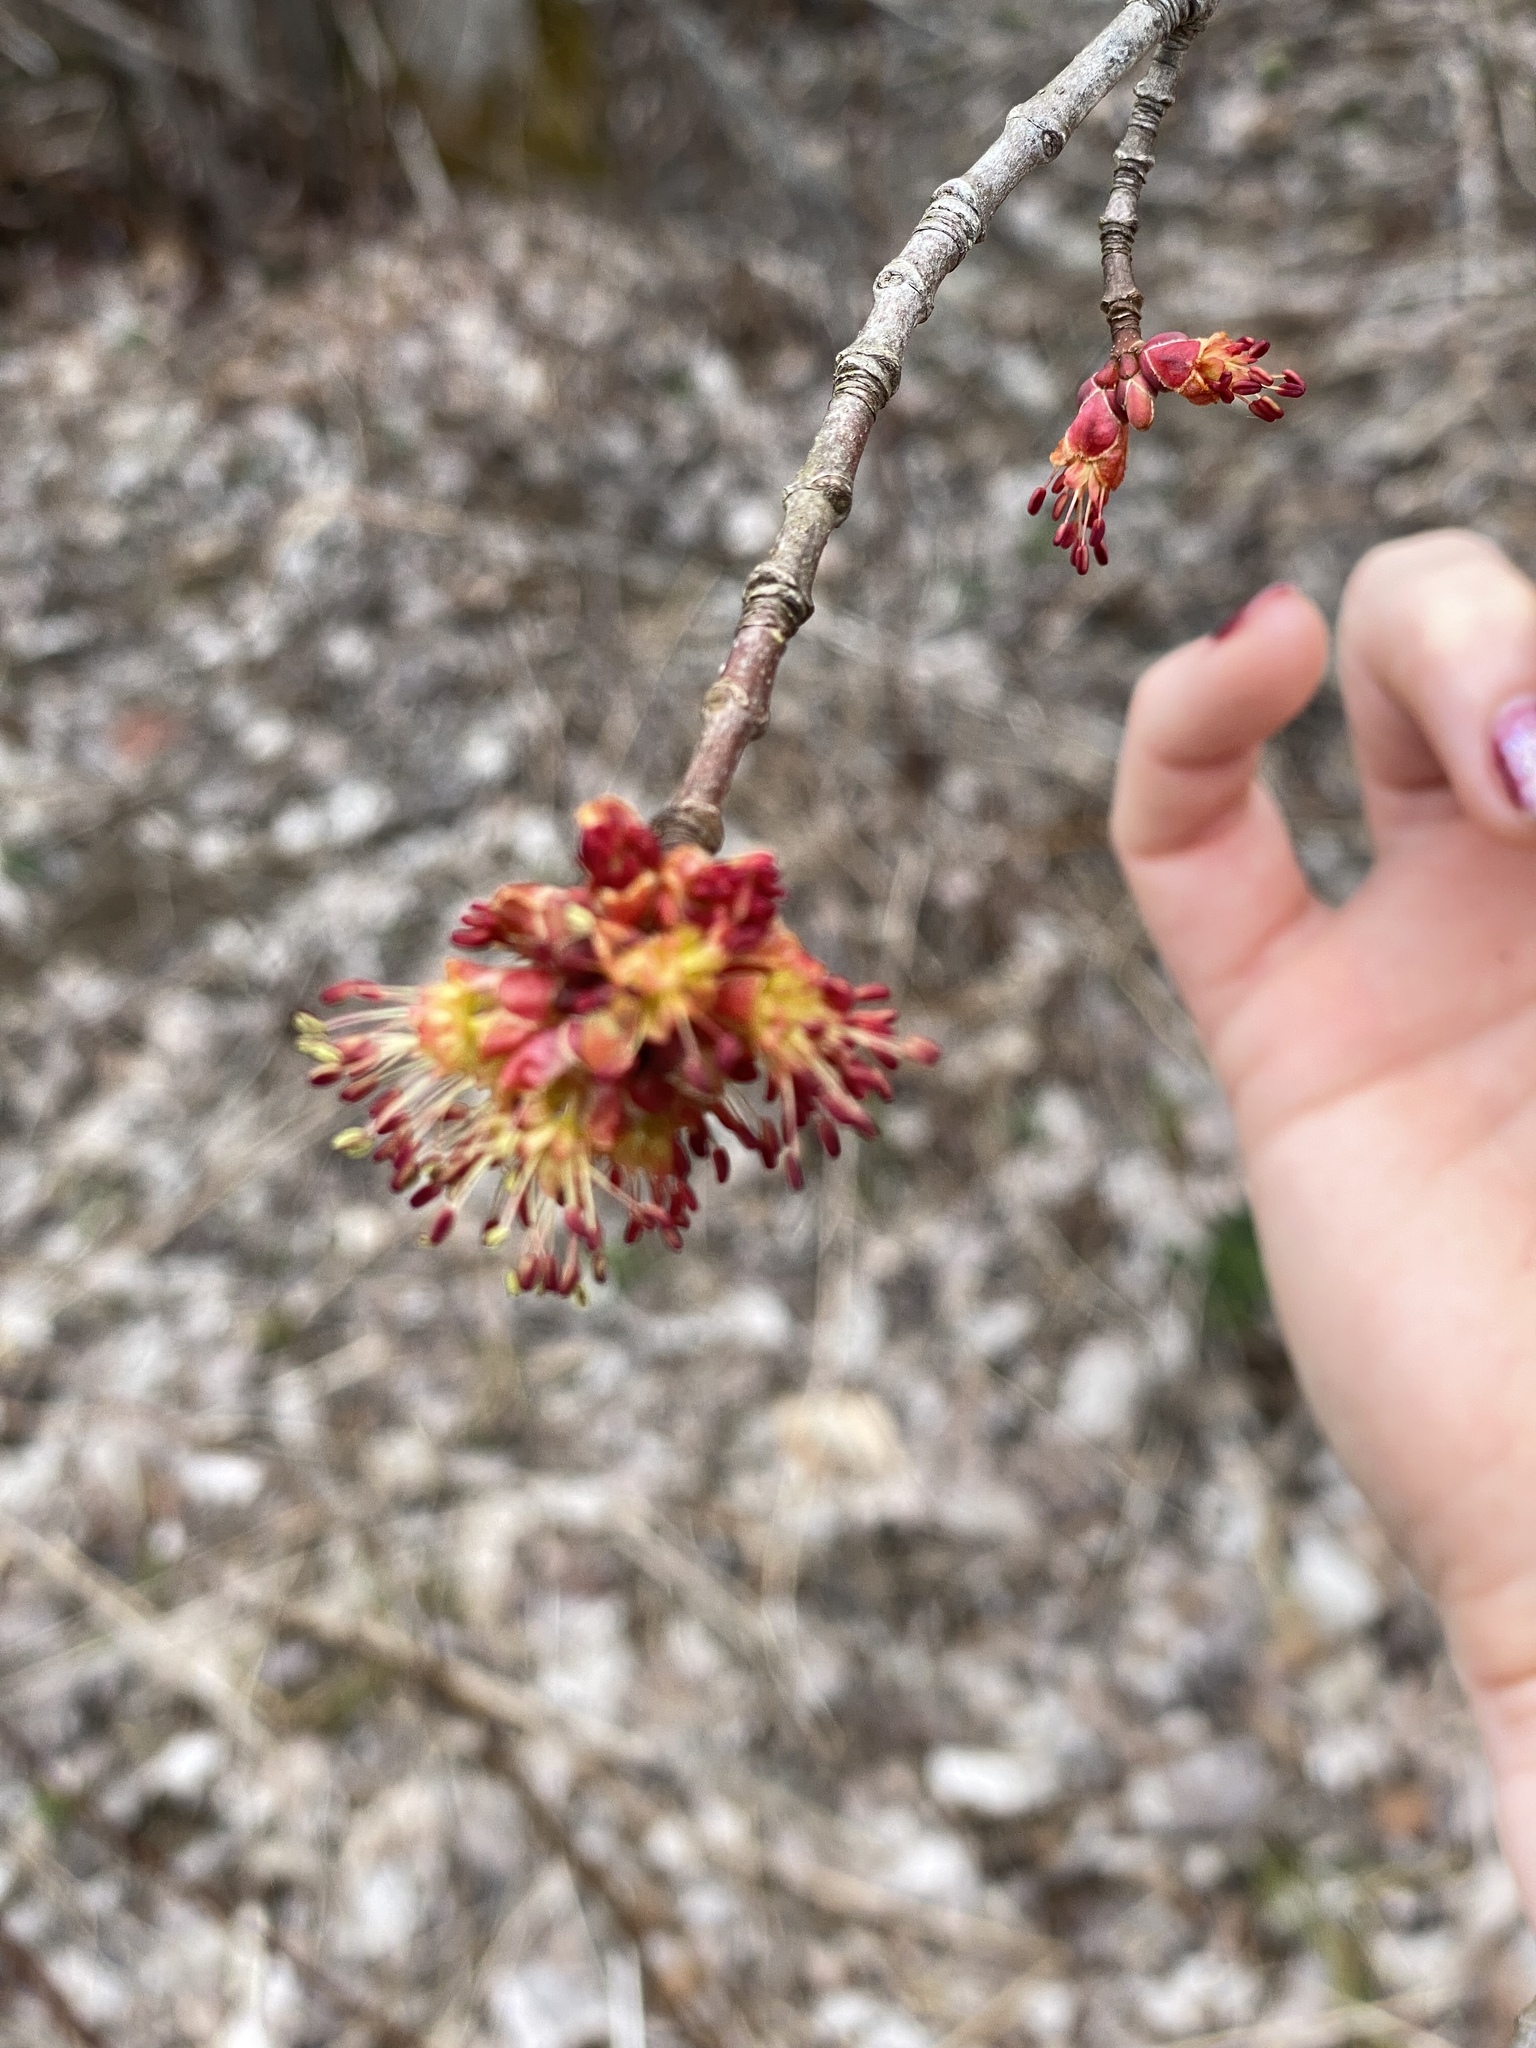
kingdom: Plantae
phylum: Tracheophyta
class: Magnoliopsida
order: Sapindales
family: Sapindaceae
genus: Acer
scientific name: Acer rubrum
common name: Red maple
